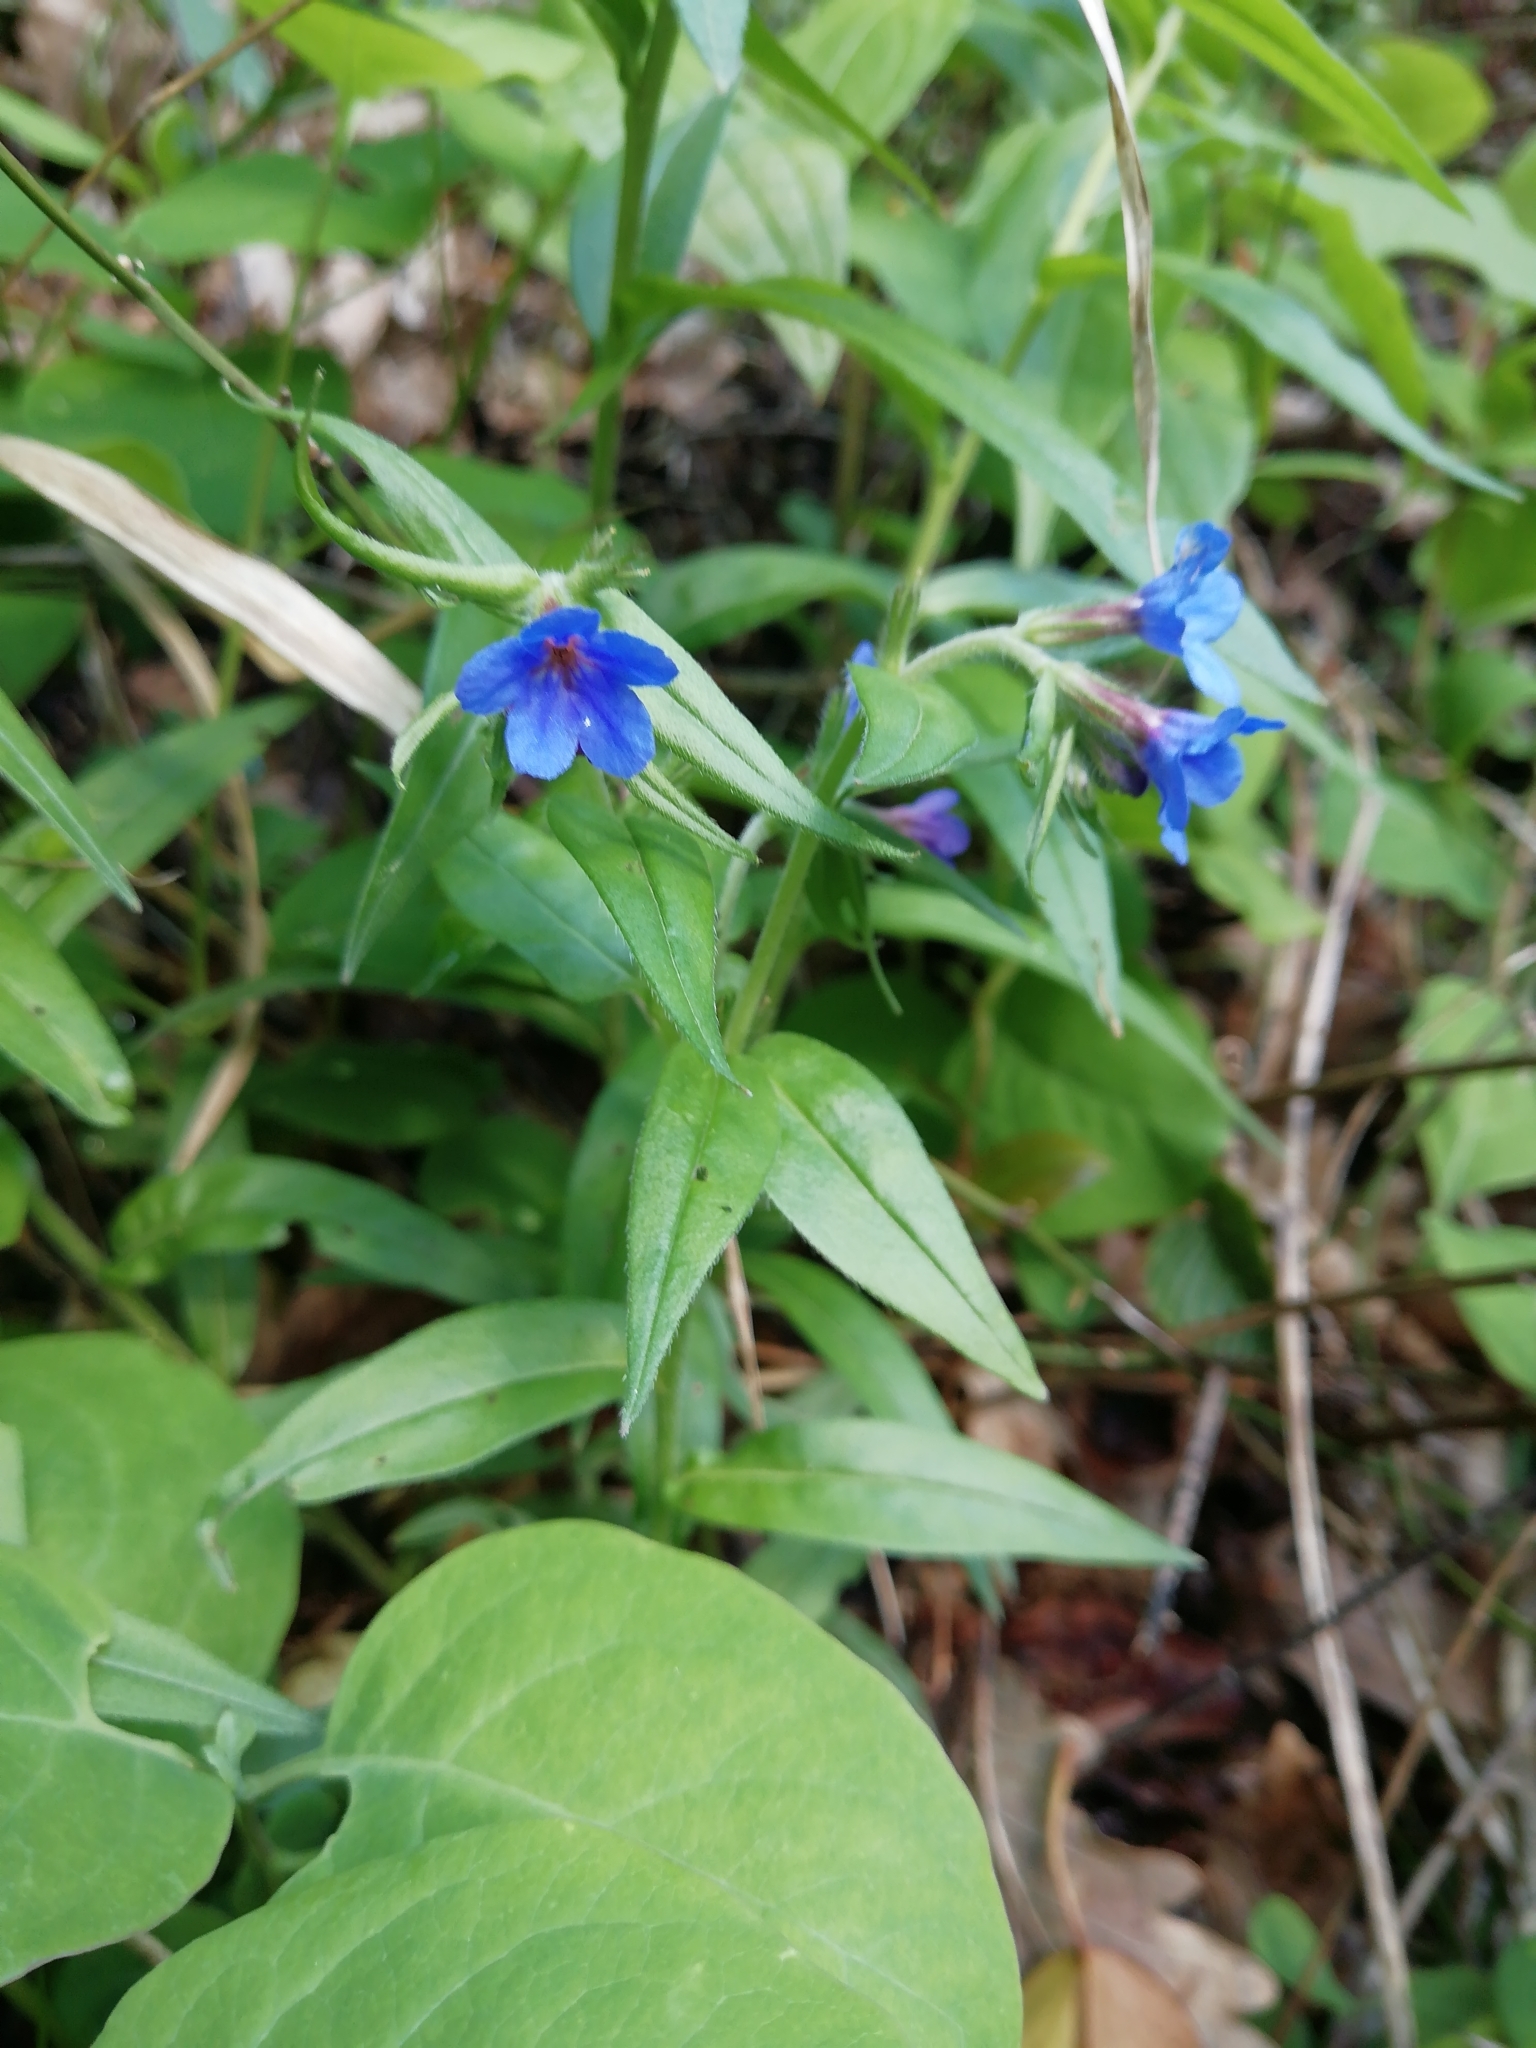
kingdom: Plantae
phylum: Tracheophyta
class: Magnoliopsida
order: Boraginales
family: Boraginaceae
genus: Aegonychon
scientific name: Aegonychon purpurocaeruleum
